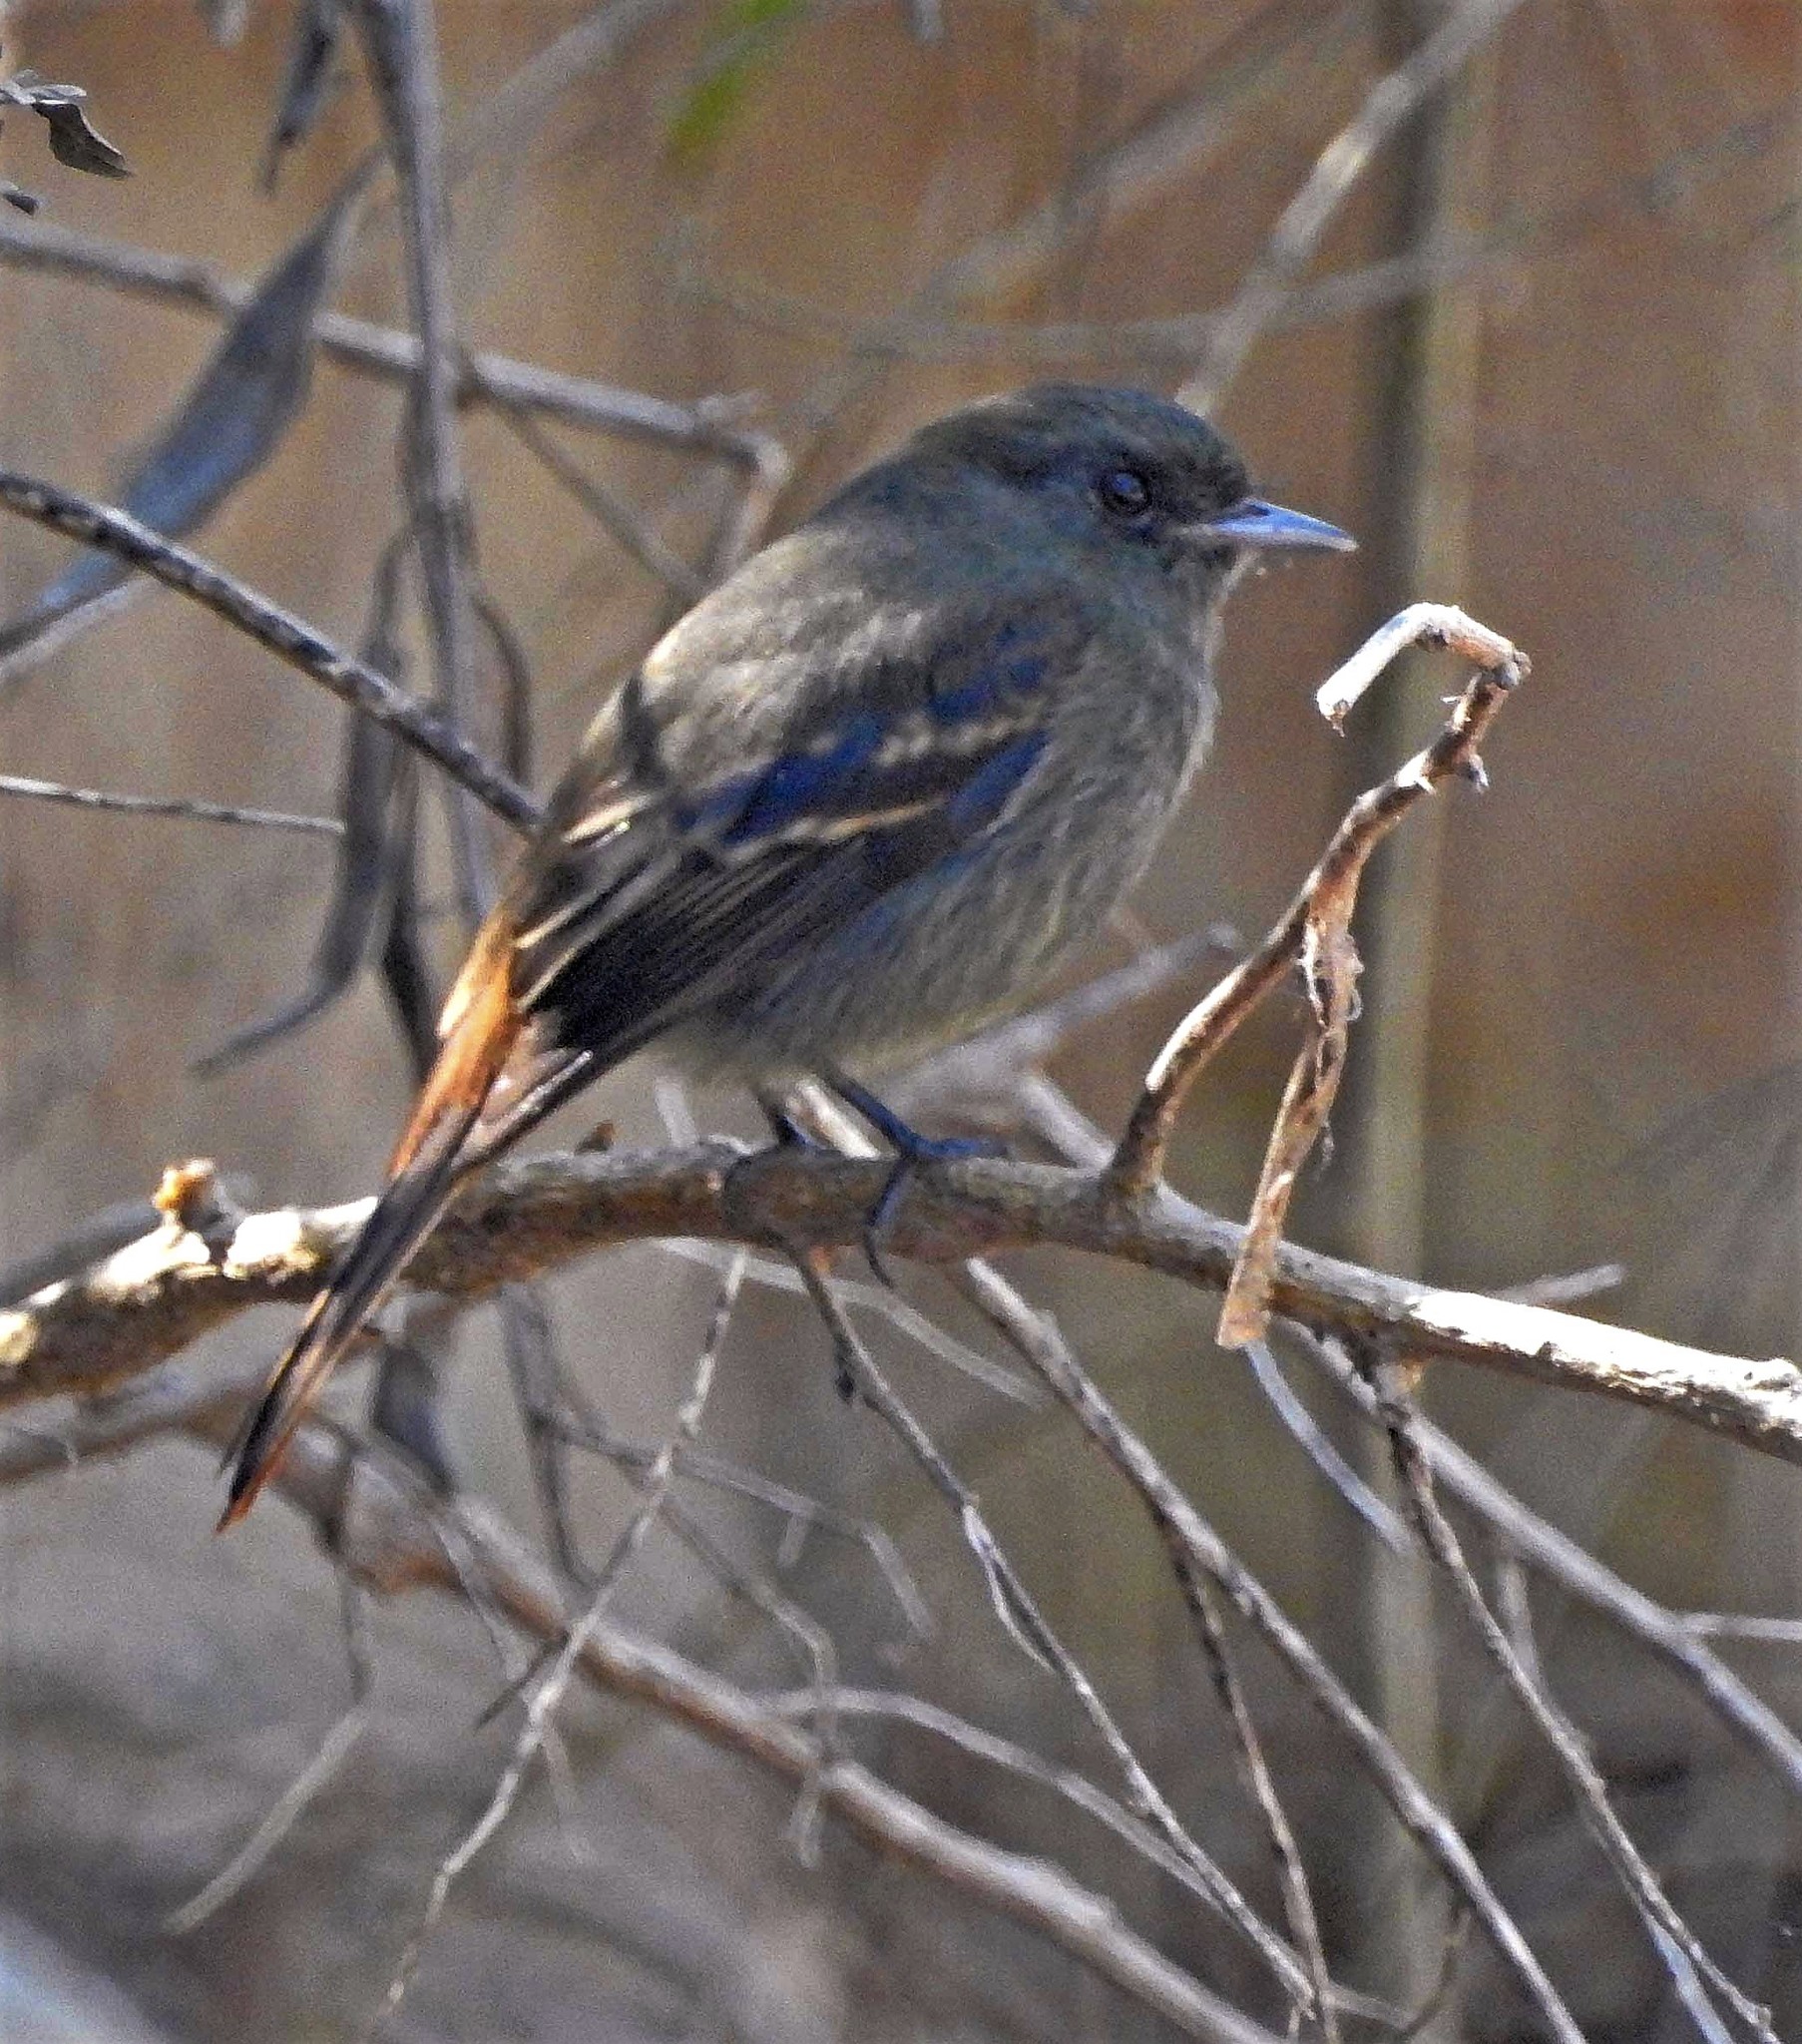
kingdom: Animalia
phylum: Chordata
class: Aves
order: Passeriformes
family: Tyrannidae
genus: Knipolegus
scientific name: Knipolegus cabanisi
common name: Plumbeous tyrant
